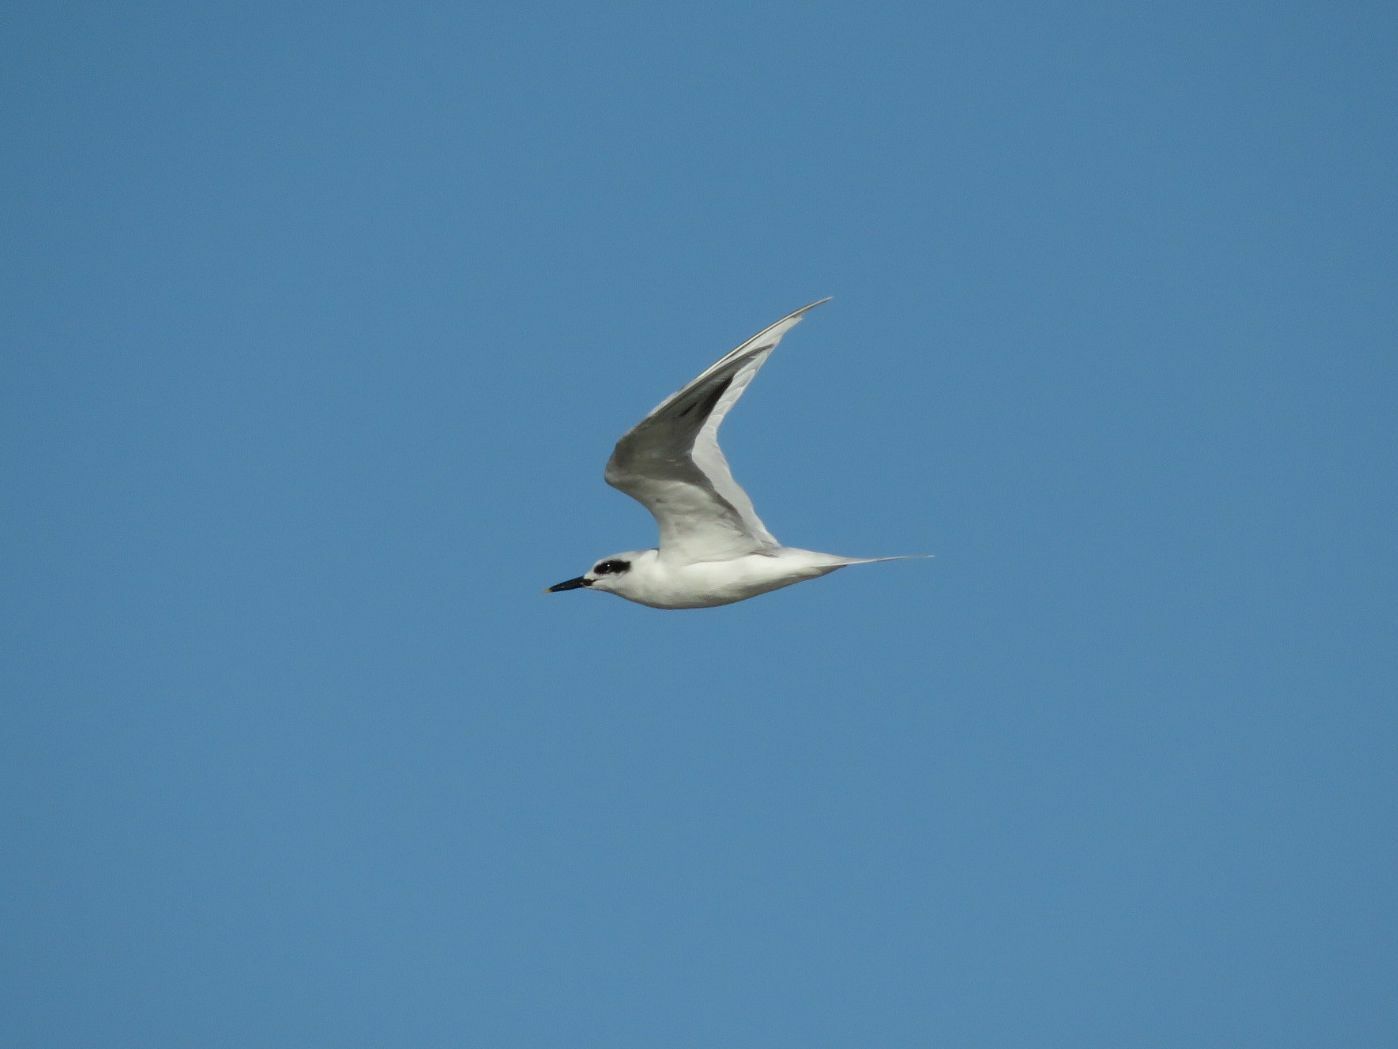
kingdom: Animalia
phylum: Chordata
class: Aves
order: Charadriiformes
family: Laridae
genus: Sterna
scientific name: Sterna trudeaui
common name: Snowy-crowned tern
